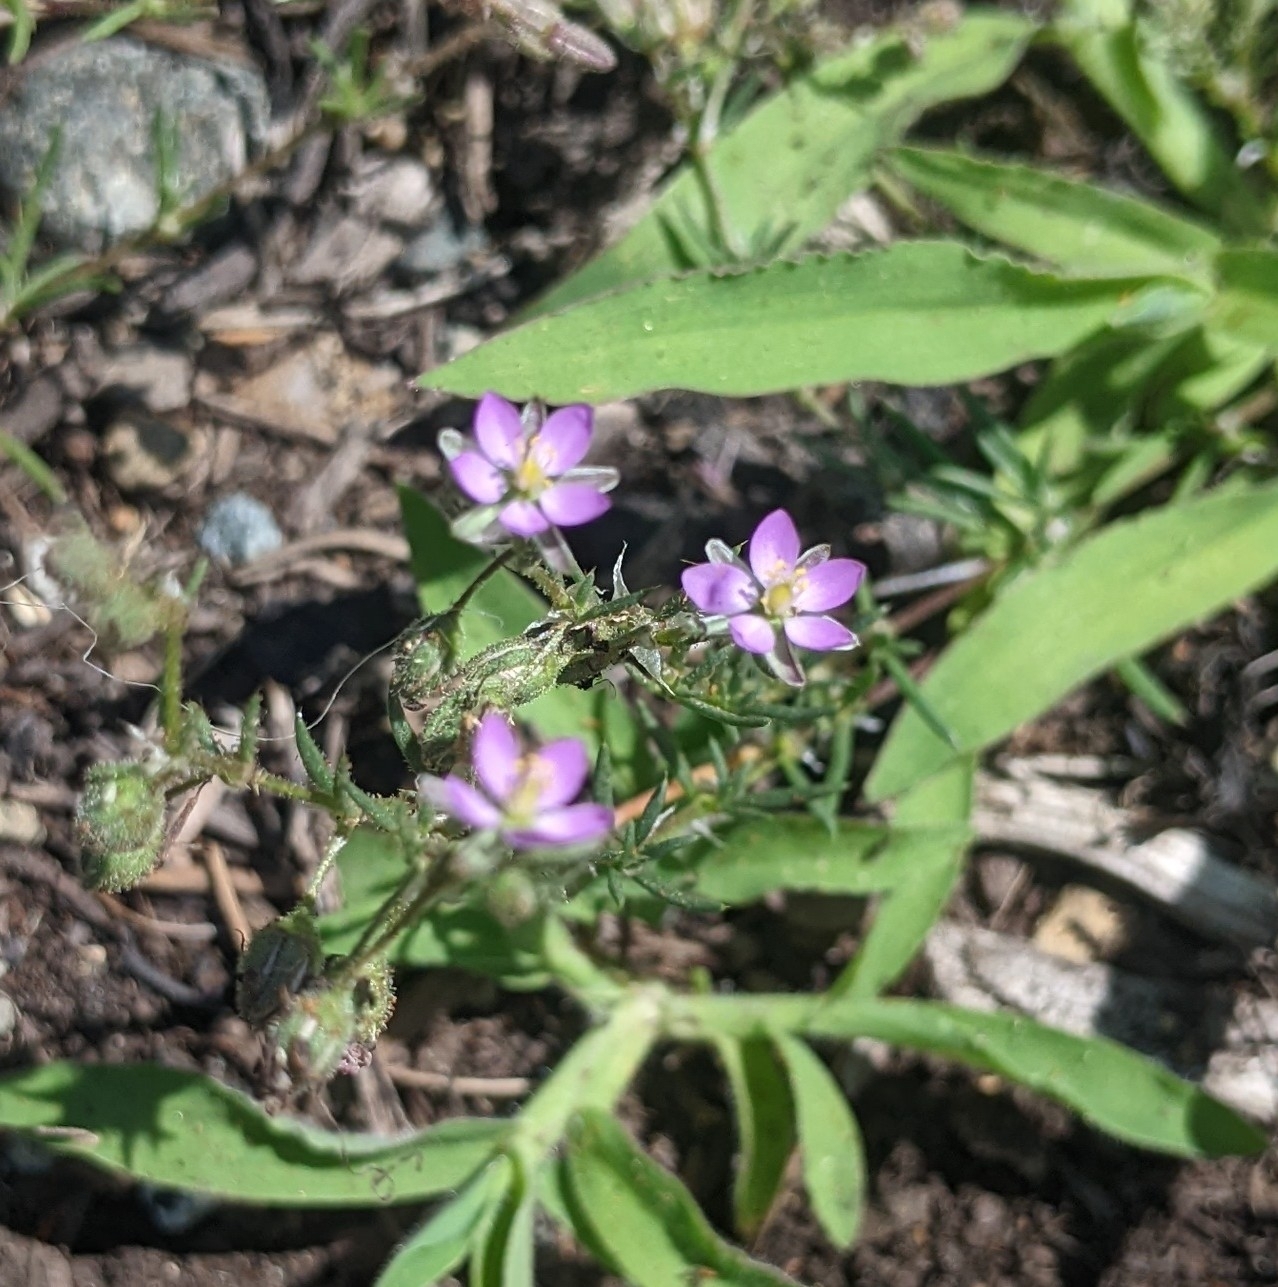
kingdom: Plantae
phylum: Tracheophyta
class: Magnoliopsida
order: Caryophyllales
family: Caryophyllaceae
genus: Spergularia
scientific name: Spergularia rubra
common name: Red sand-spurrey
